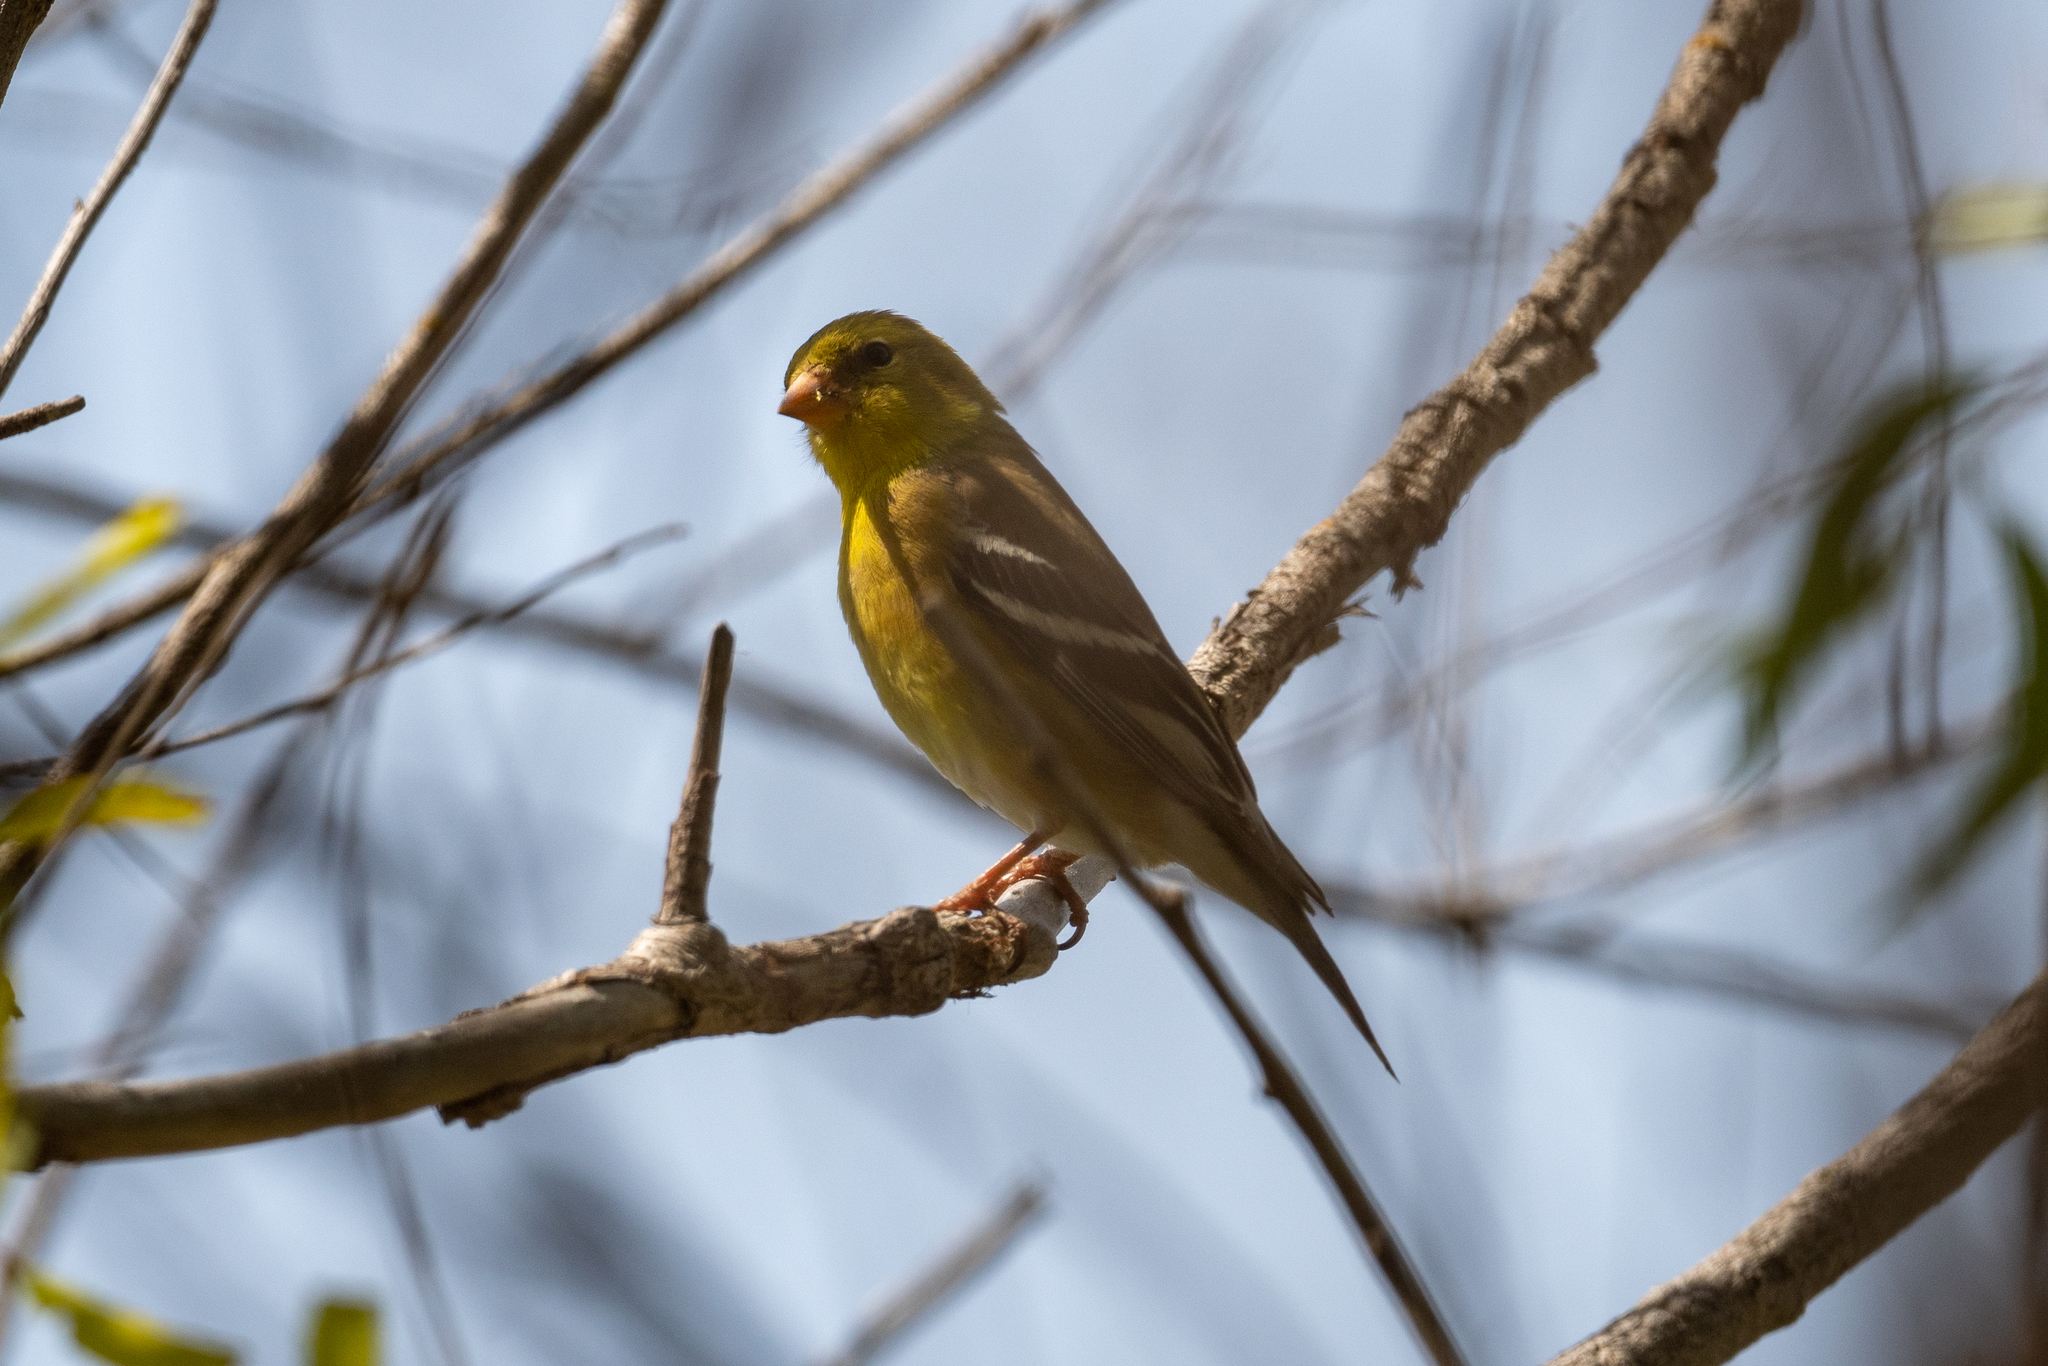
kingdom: Animalia
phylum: Chordata
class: Aves
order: Passeriformes
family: Fringillidae
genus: Spinus
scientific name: Spinus tristis
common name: American goldfinch
